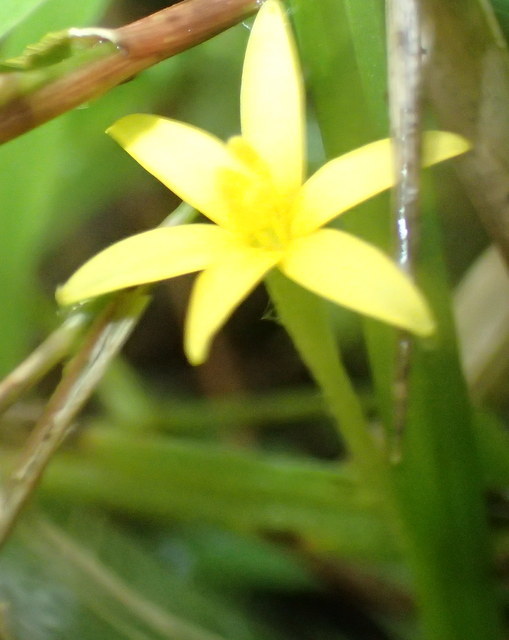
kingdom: Plantae
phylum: Tracheophyta
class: Liliopsida
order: Asparagales
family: Hypoxidaceae
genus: Hypoxis
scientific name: Hypoxis curtissii
